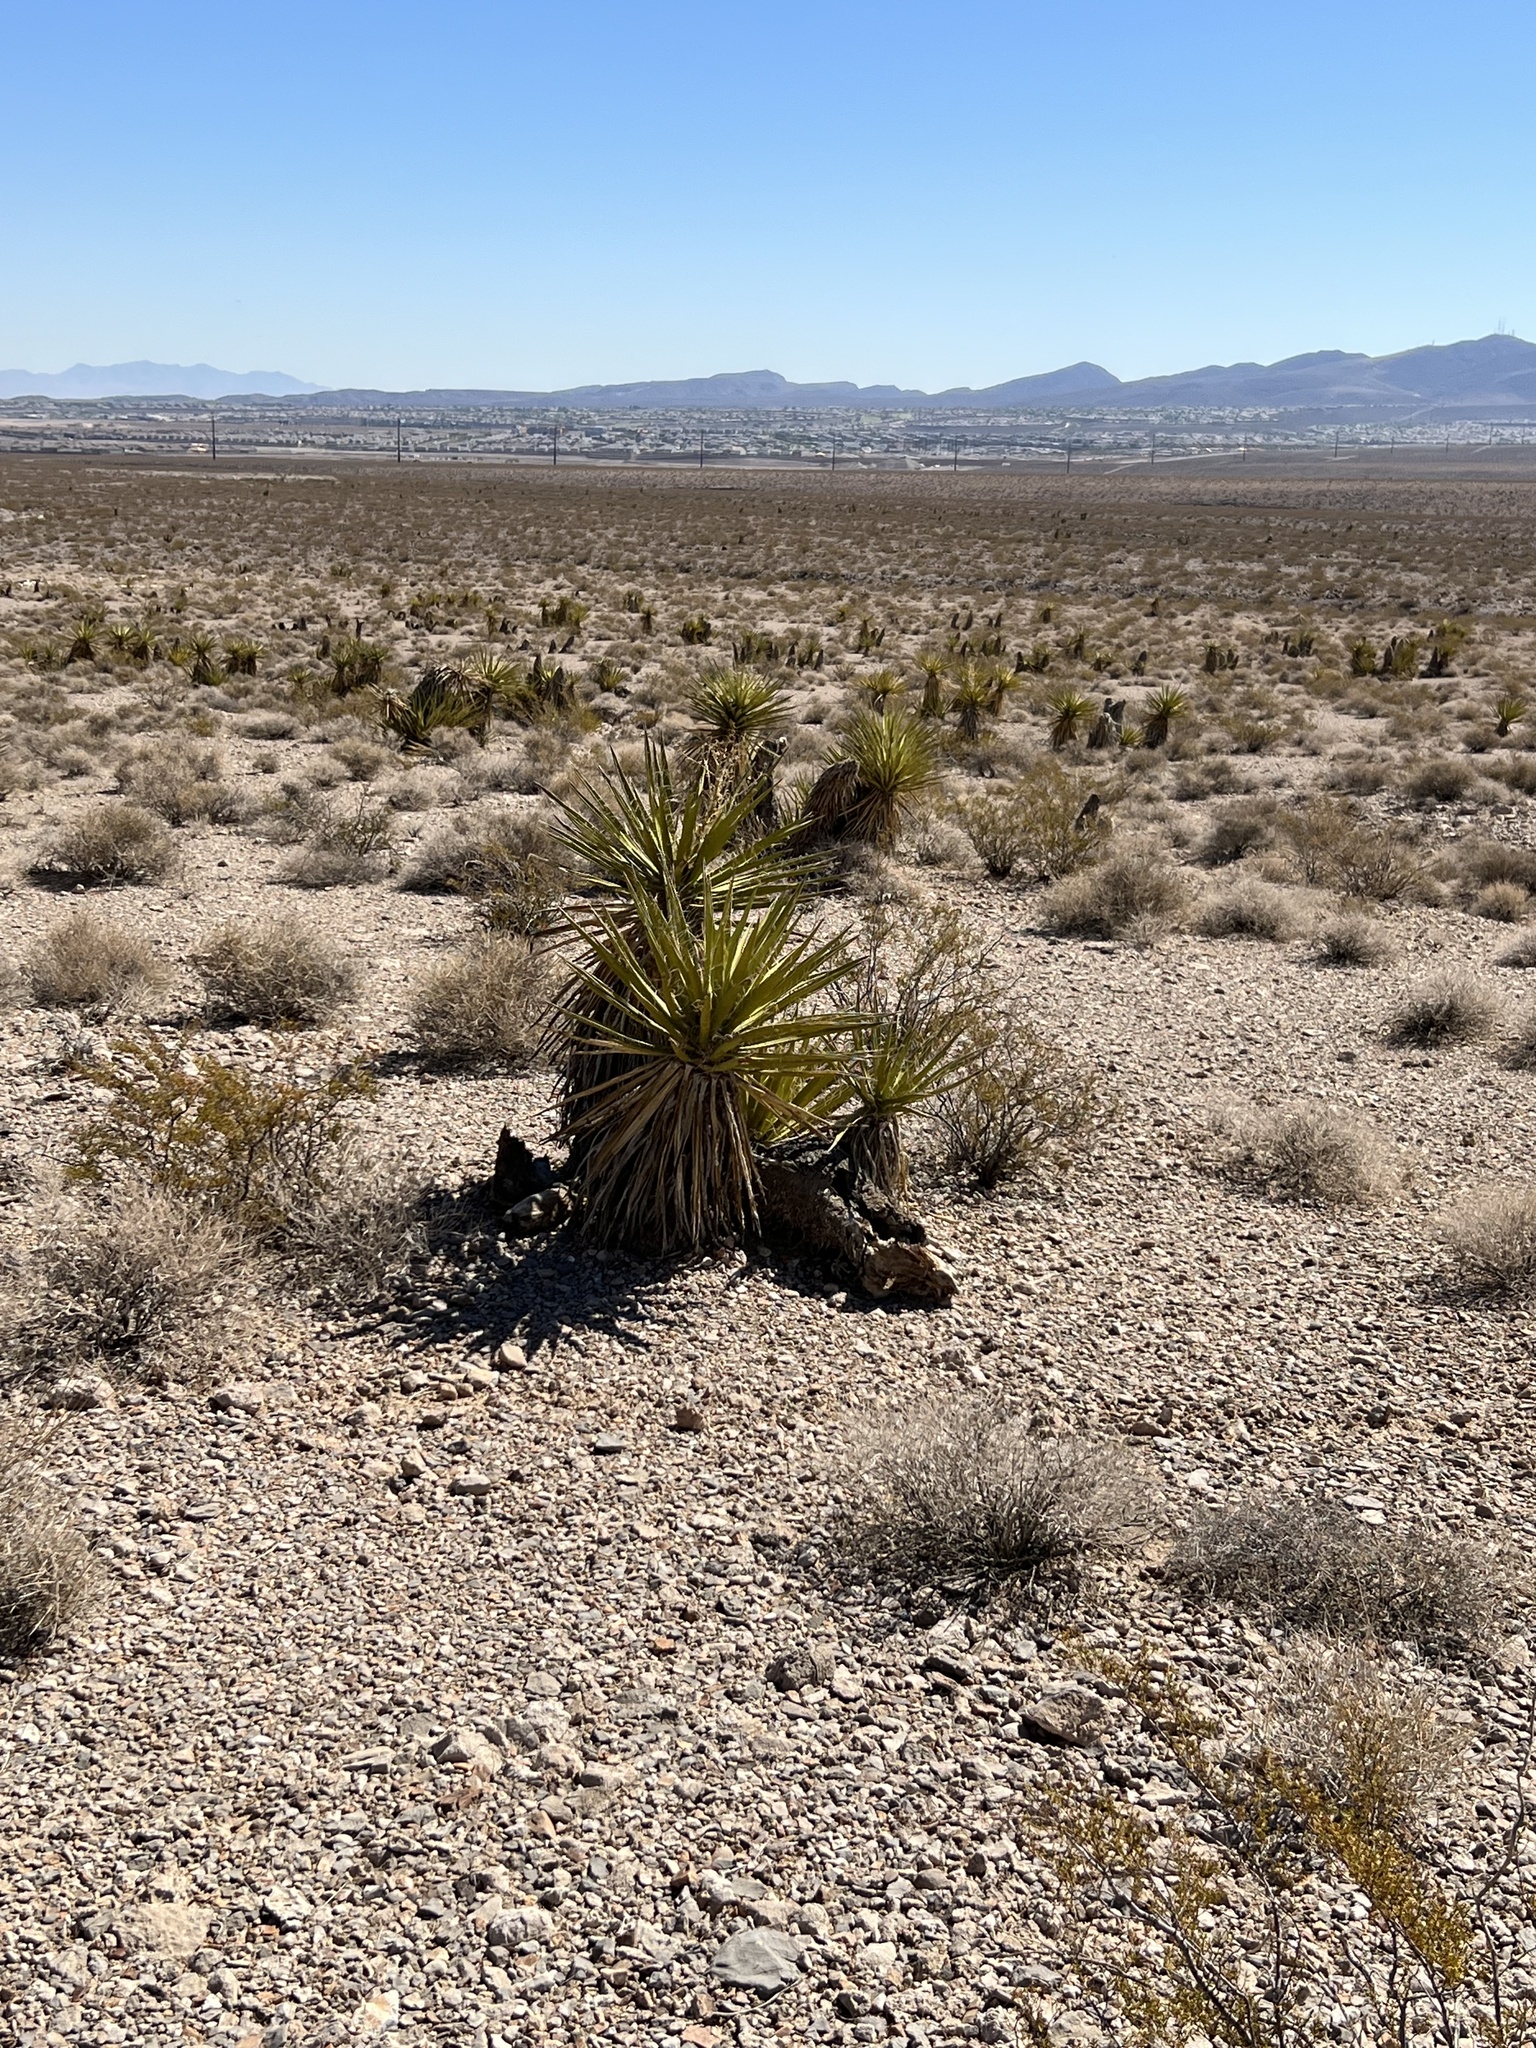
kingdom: Plantae
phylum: Tracheophyta
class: Liliopsida
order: Asparagales
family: Asparagaceae
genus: Yucca
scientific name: Yucca schidigera
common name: Mojave yucca
